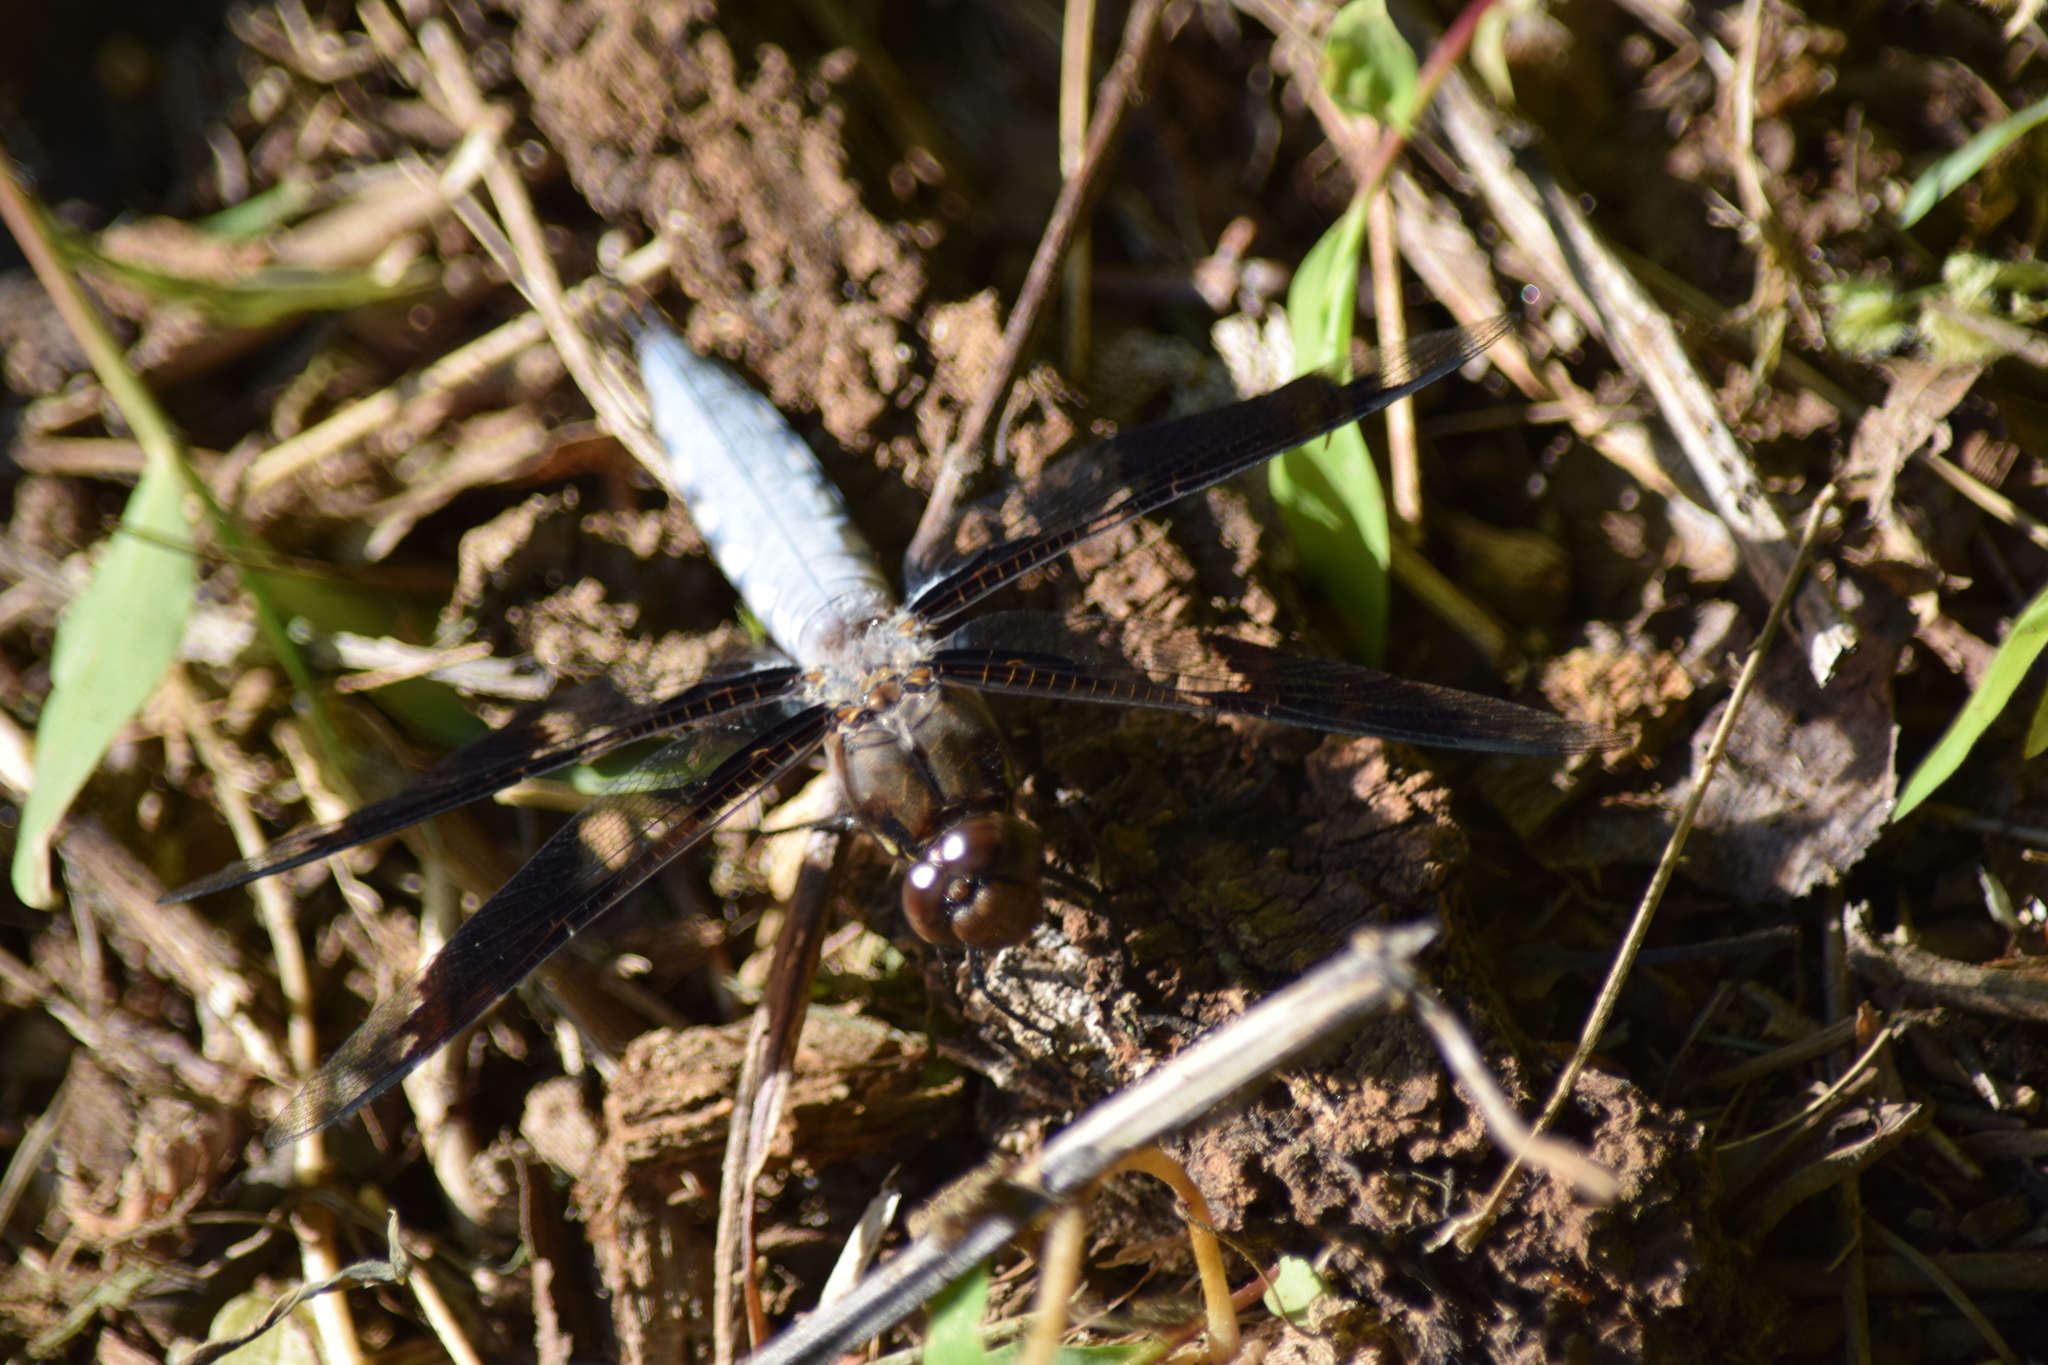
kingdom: Animalia
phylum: Arthropoda
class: Insecta
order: Odonata
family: Libellulidae
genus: Plathemis
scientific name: Plathemis lydia
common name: Common whitetail
